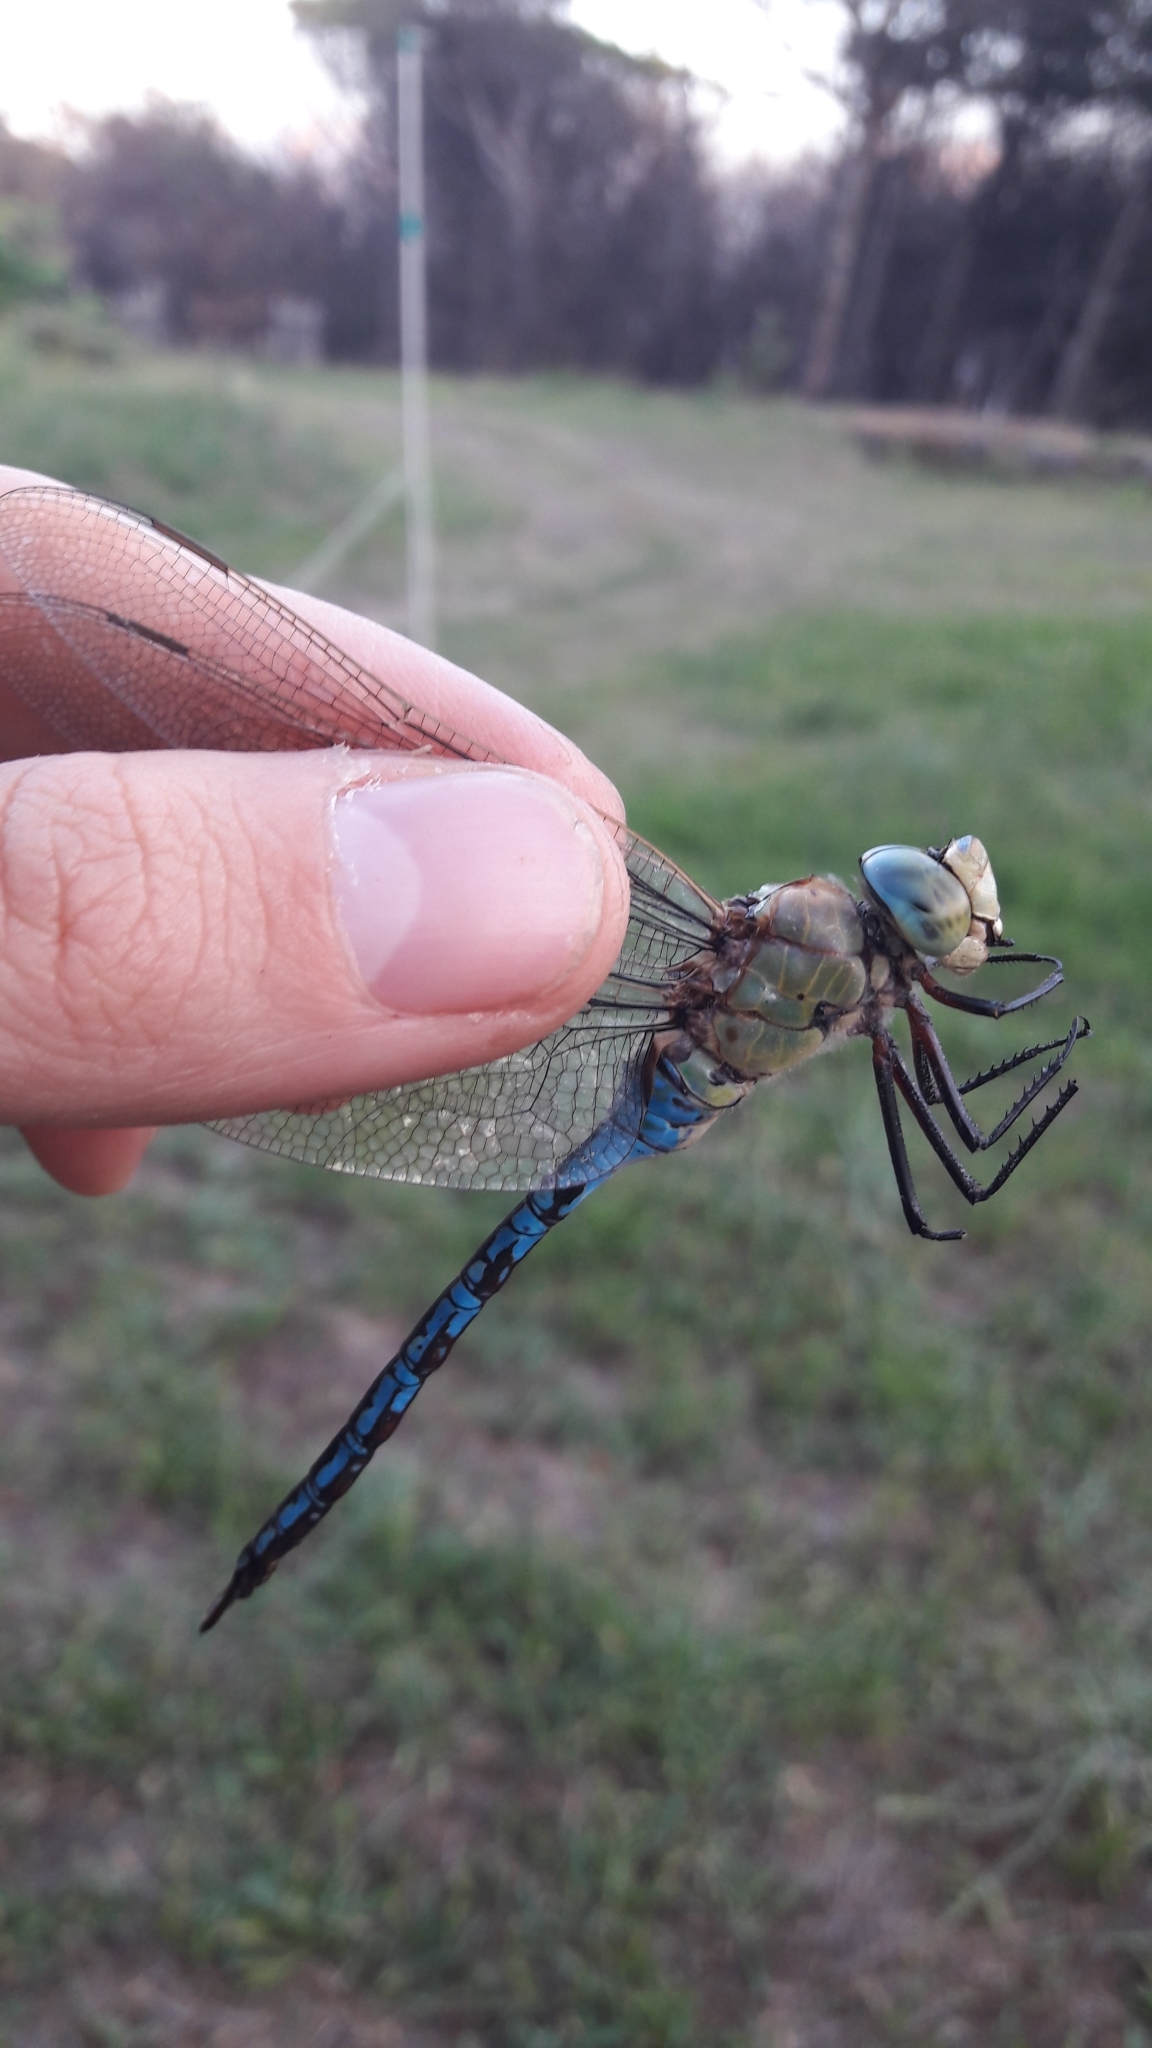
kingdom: Animalia
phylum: Arthropoda
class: Insecta
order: Odonata
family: Aeshnidae
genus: Anax
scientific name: Anax imperator
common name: Emperor dragonfly
